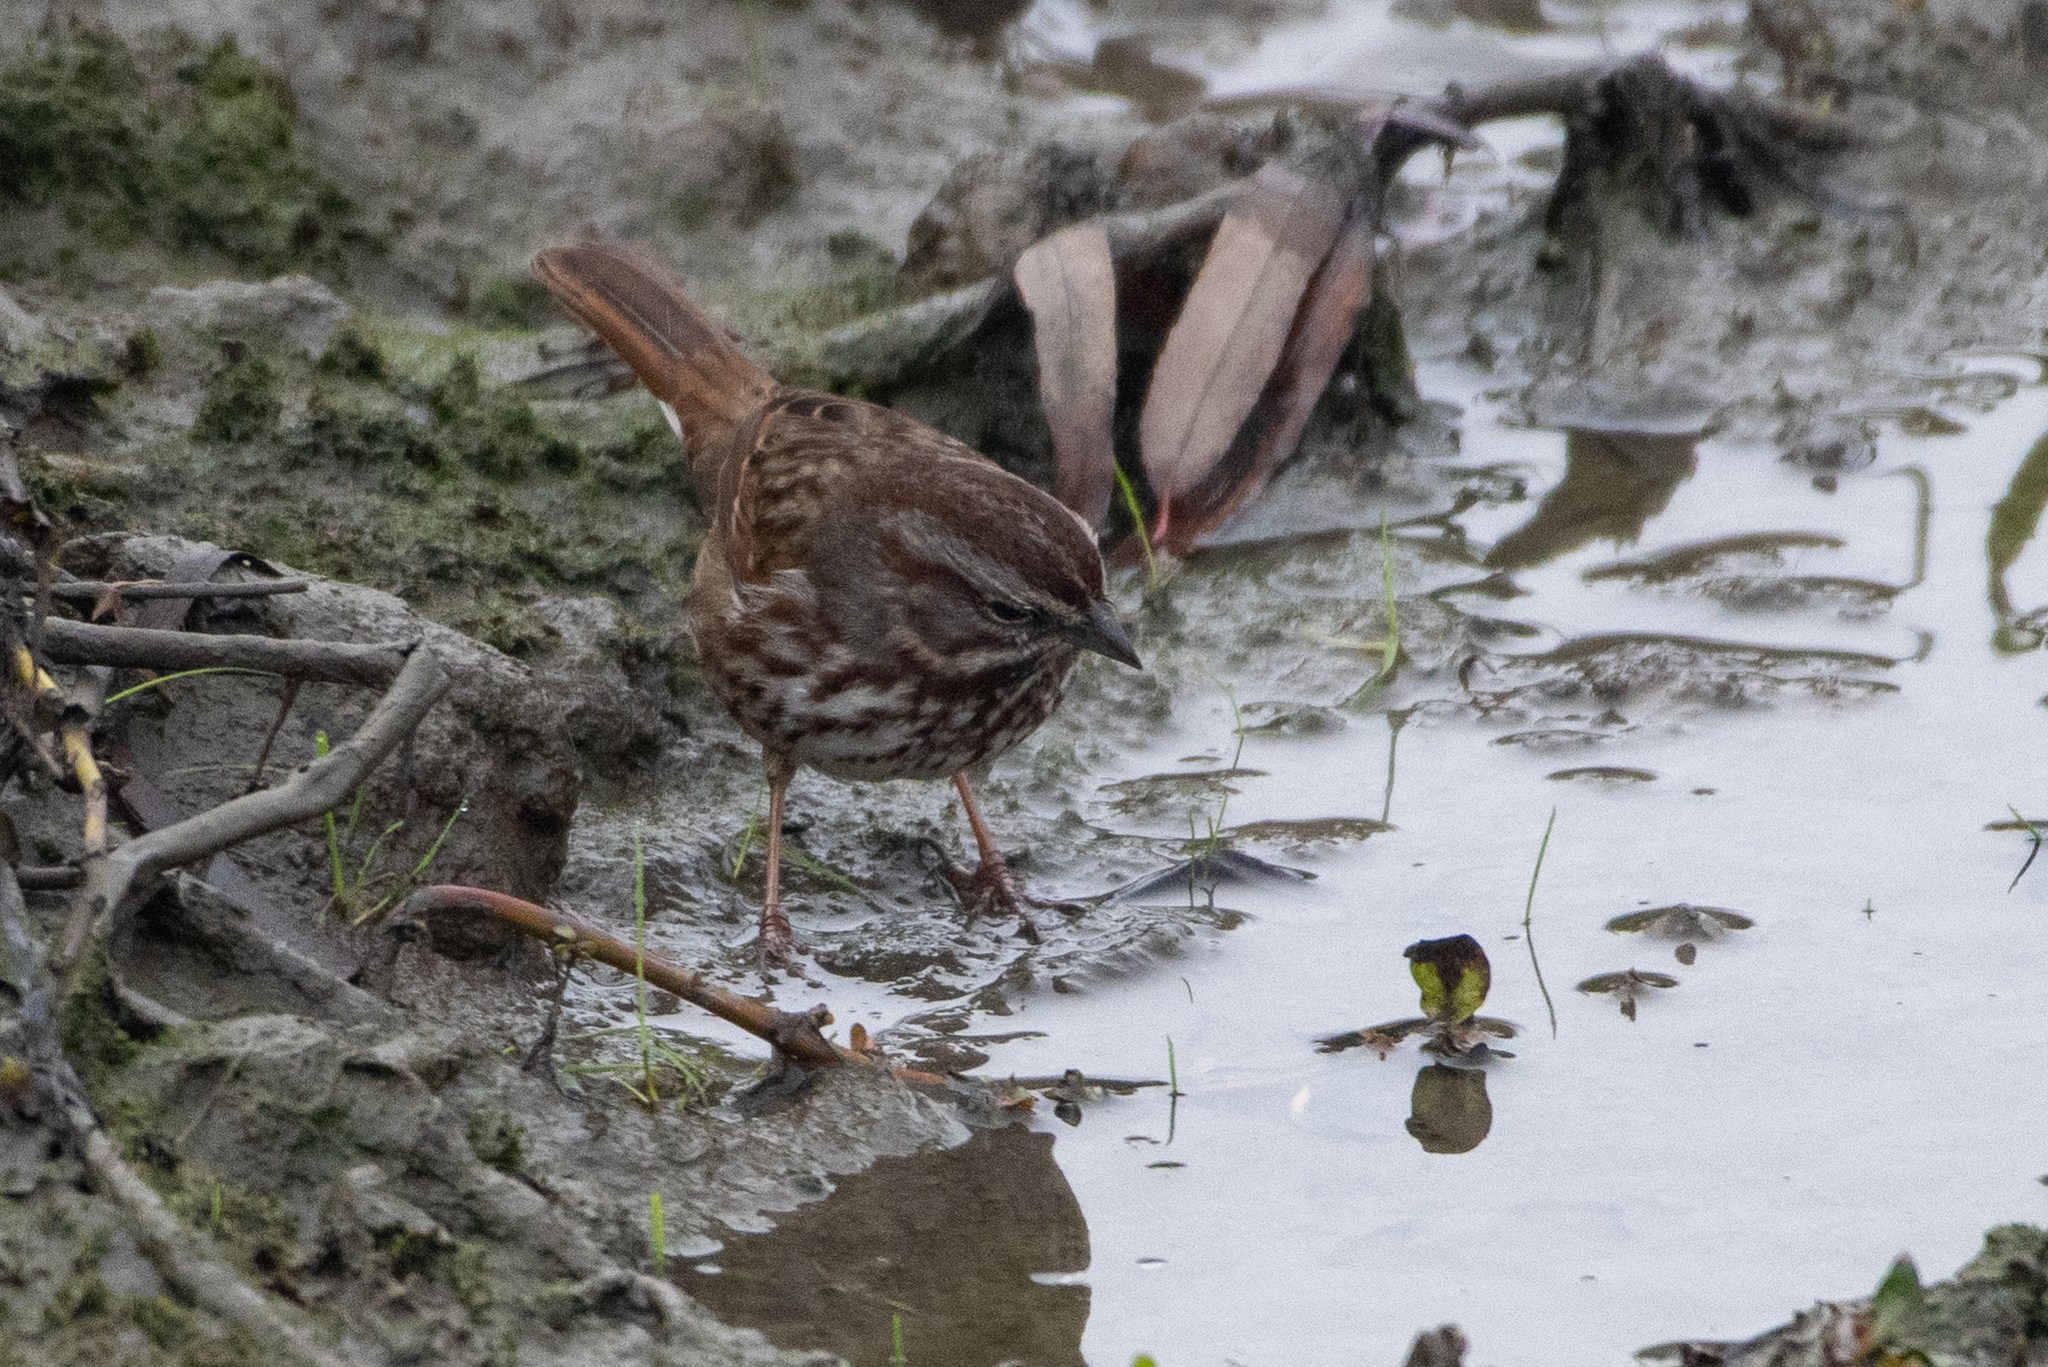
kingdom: Animalia
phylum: Chordata
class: Aves
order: Passeriformes
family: Passerellidae
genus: Melospiza
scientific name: Melospiza melodia
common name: Song sparrow
